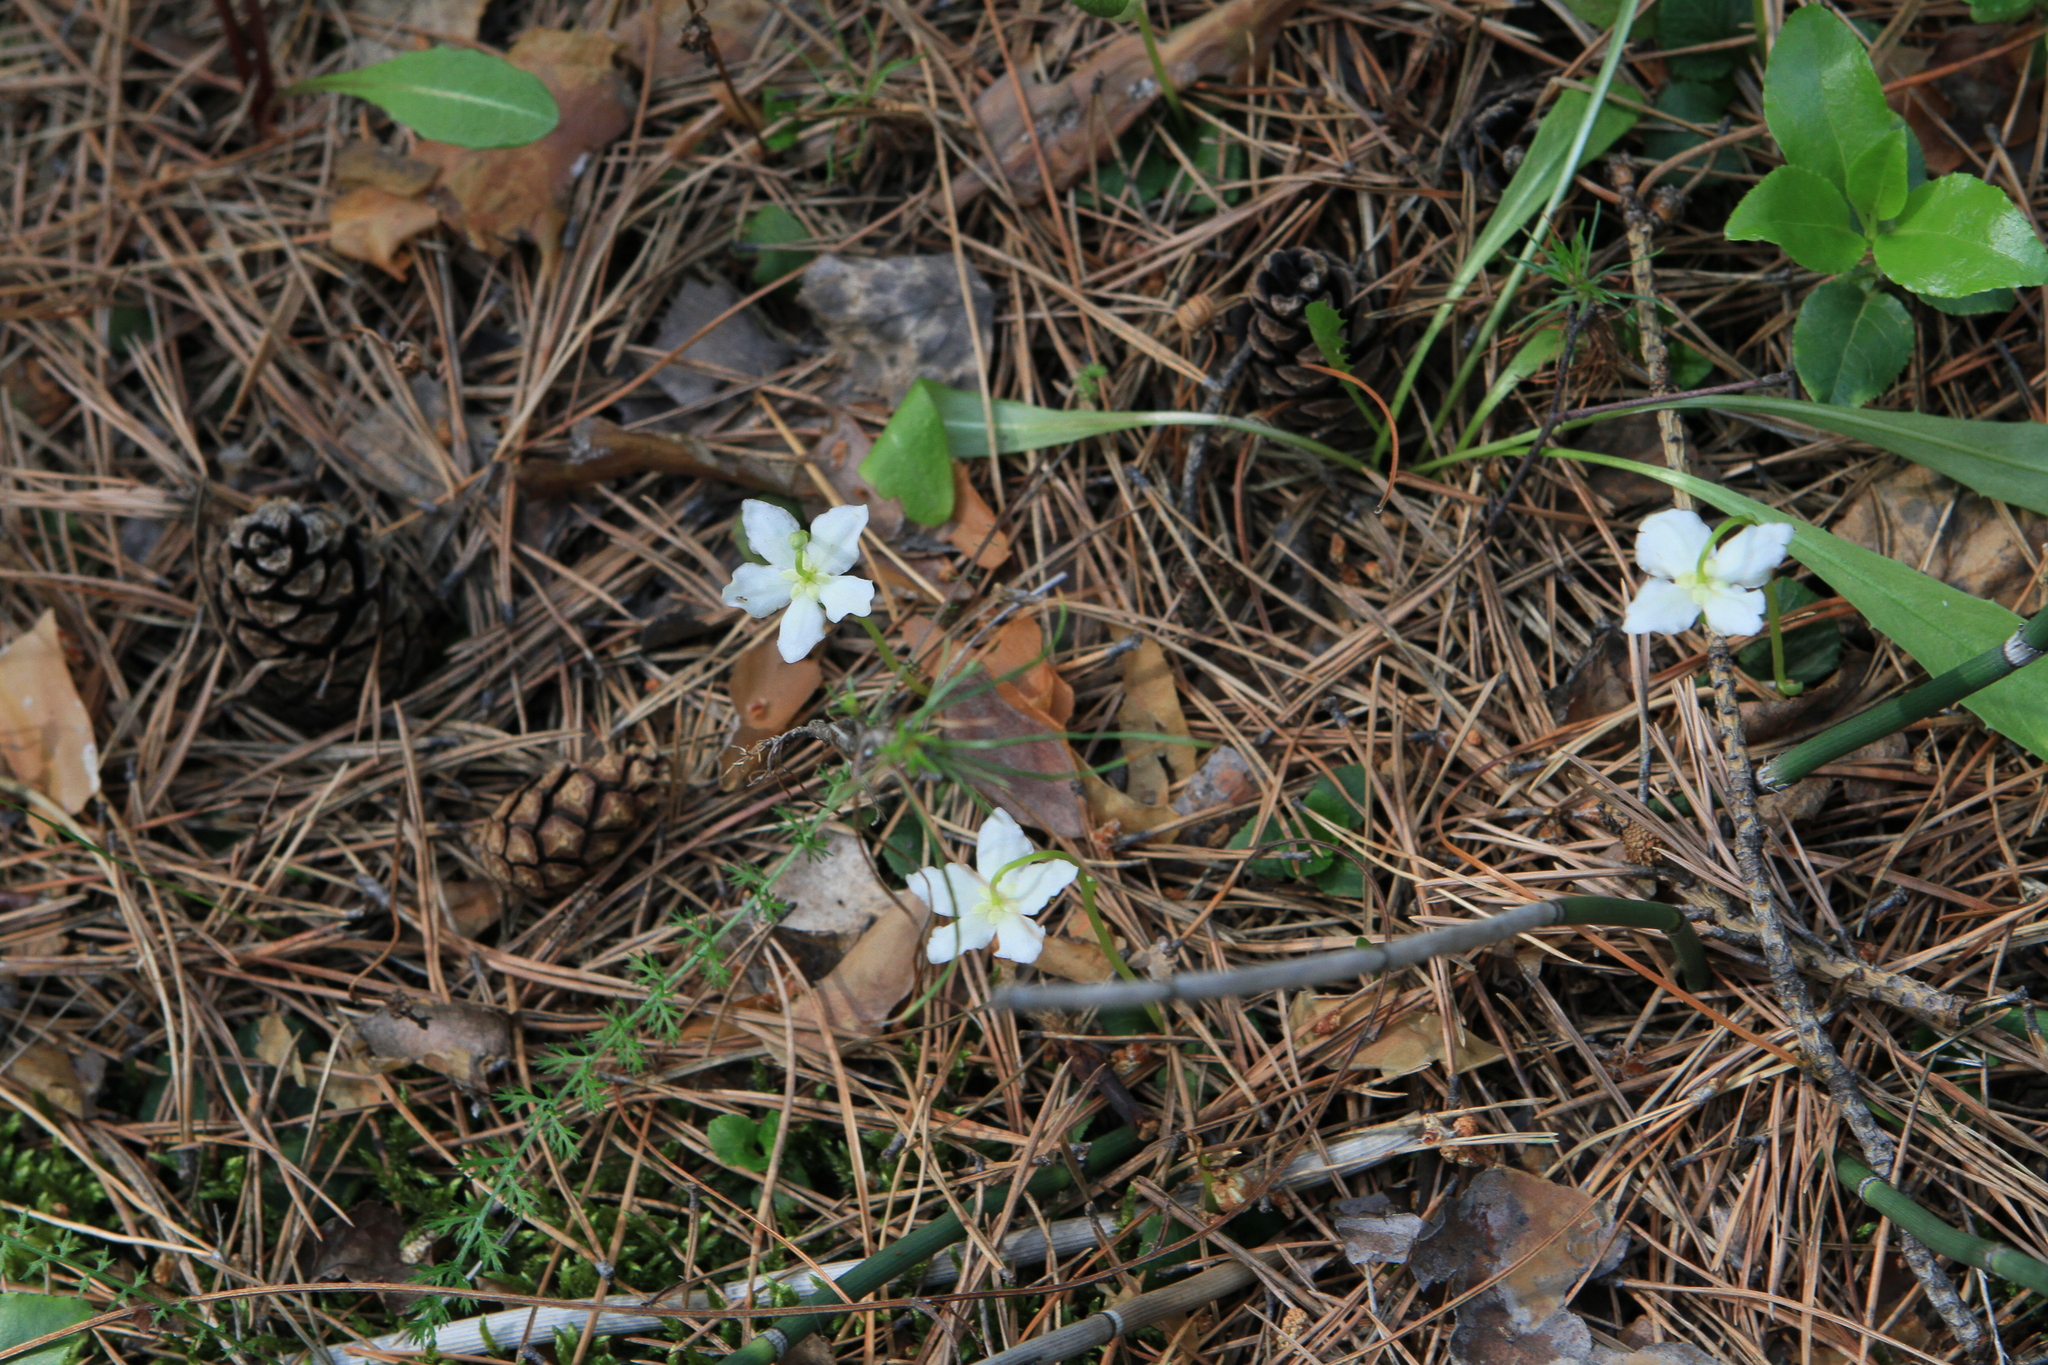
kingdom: Plantae
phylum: Tracheophyta
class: Magnoliopsida
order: Ericales
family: Ericaceae
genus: Moneses
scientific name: Moneses uniflora
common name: One-flowered wintergreen
